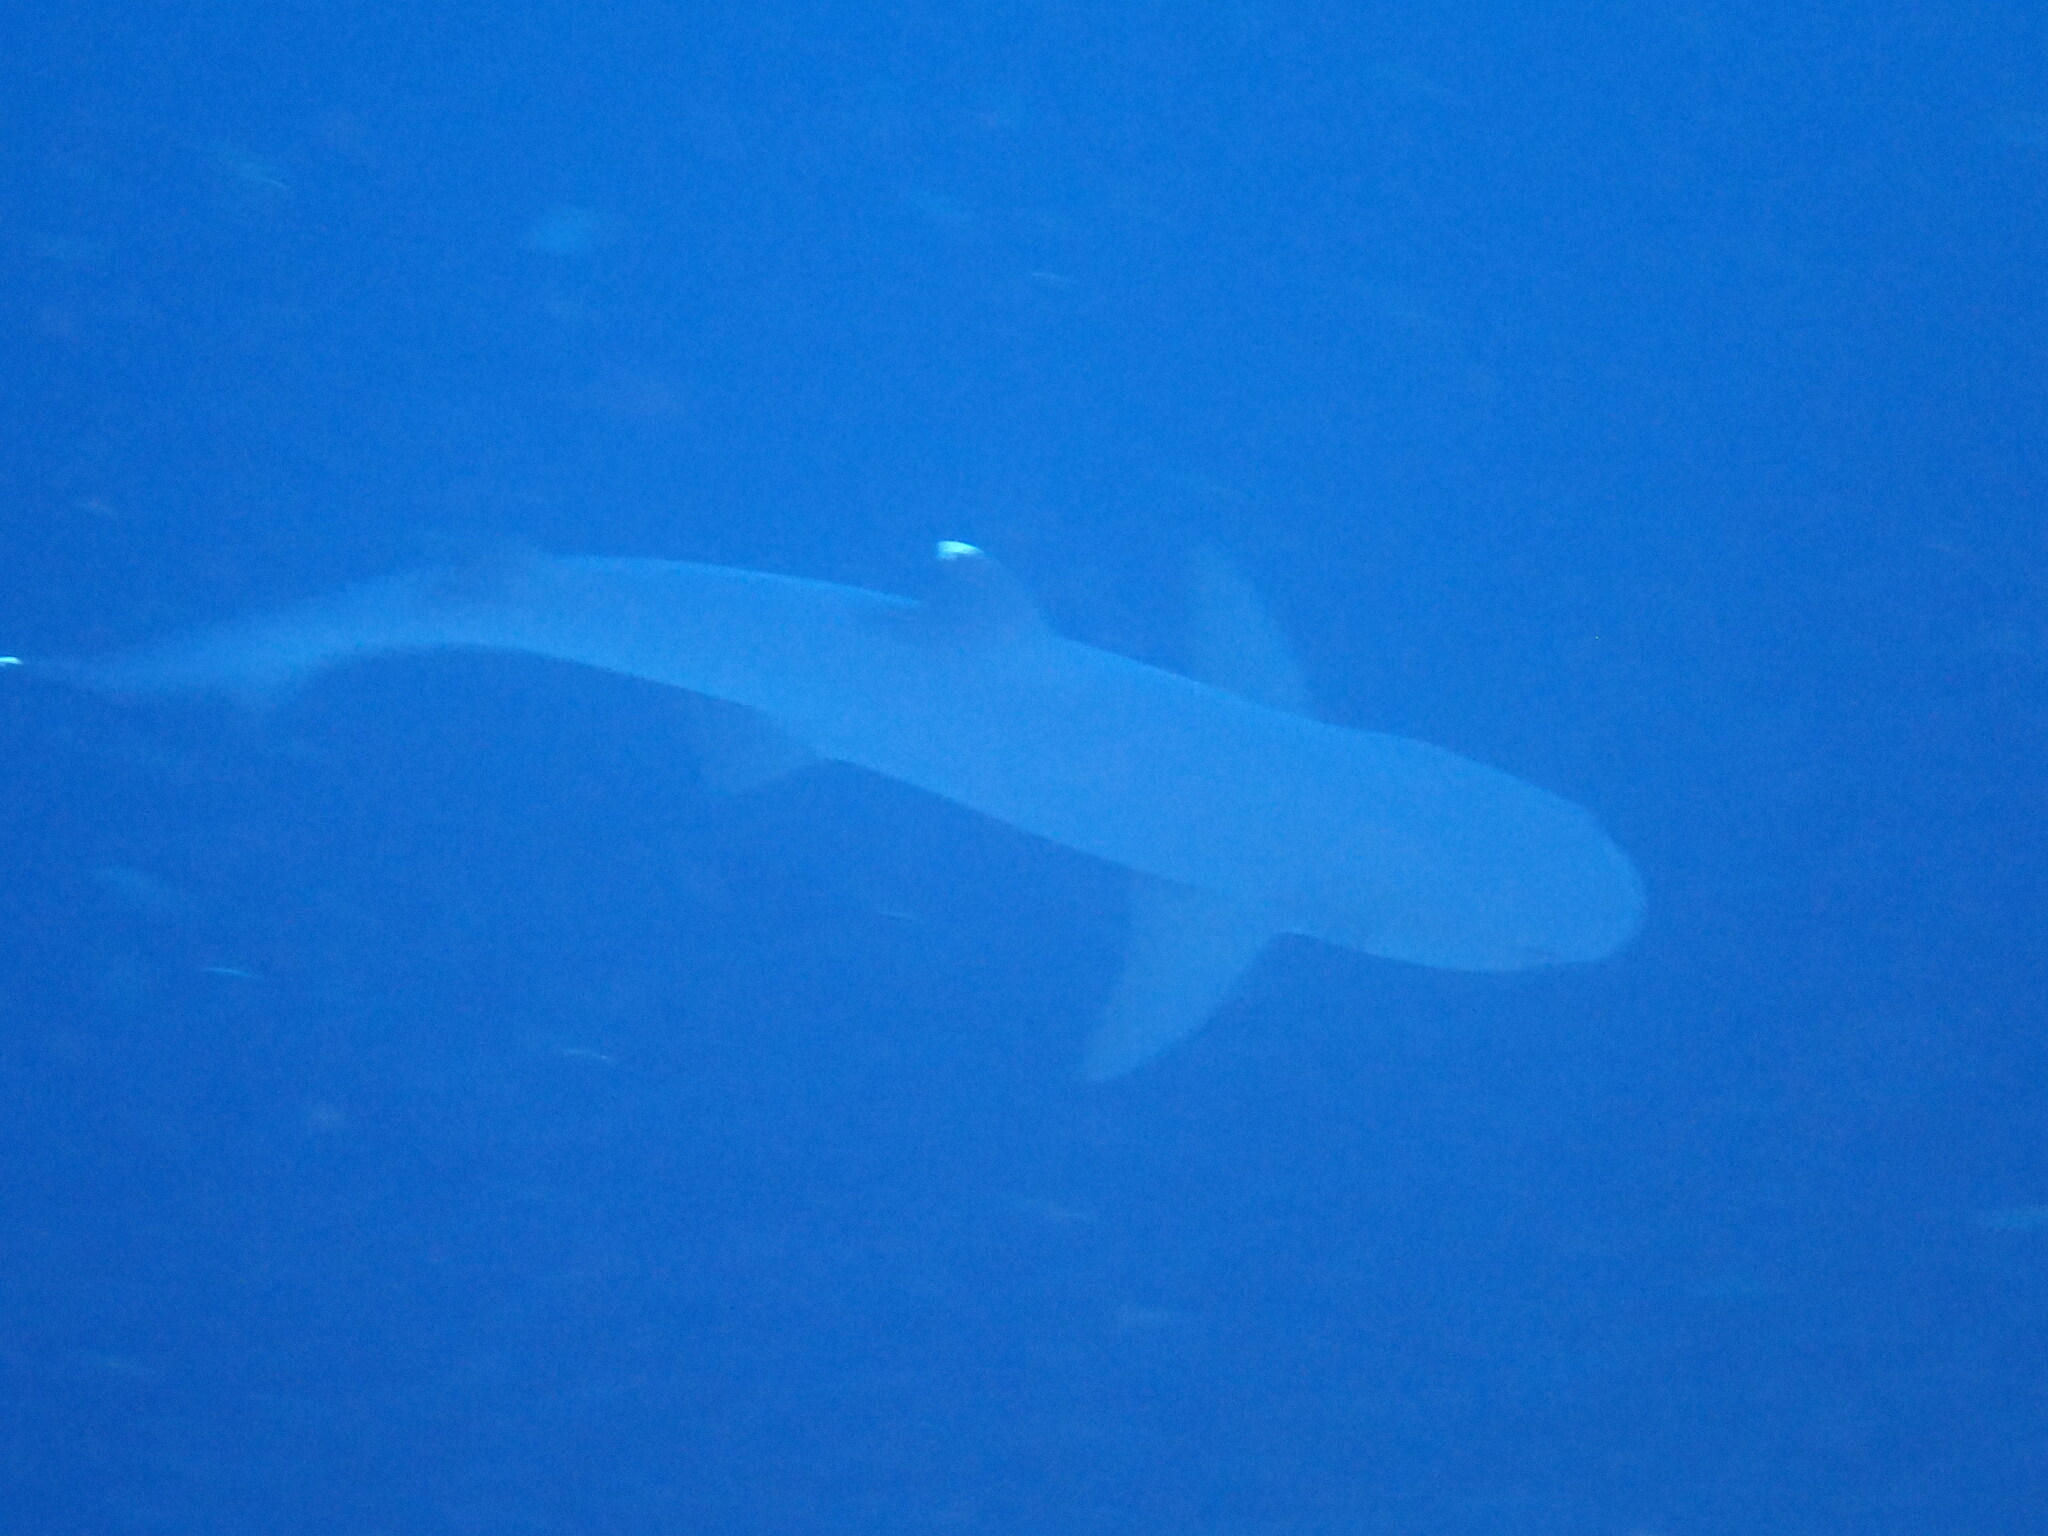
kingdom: Animalia
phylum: Chordata
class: Elasmobranchii
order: Carcharhiniformes
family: Carcharhinidae
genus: Triaenodon
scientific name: Triaenodon obesus
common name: Whitetip reef shark
